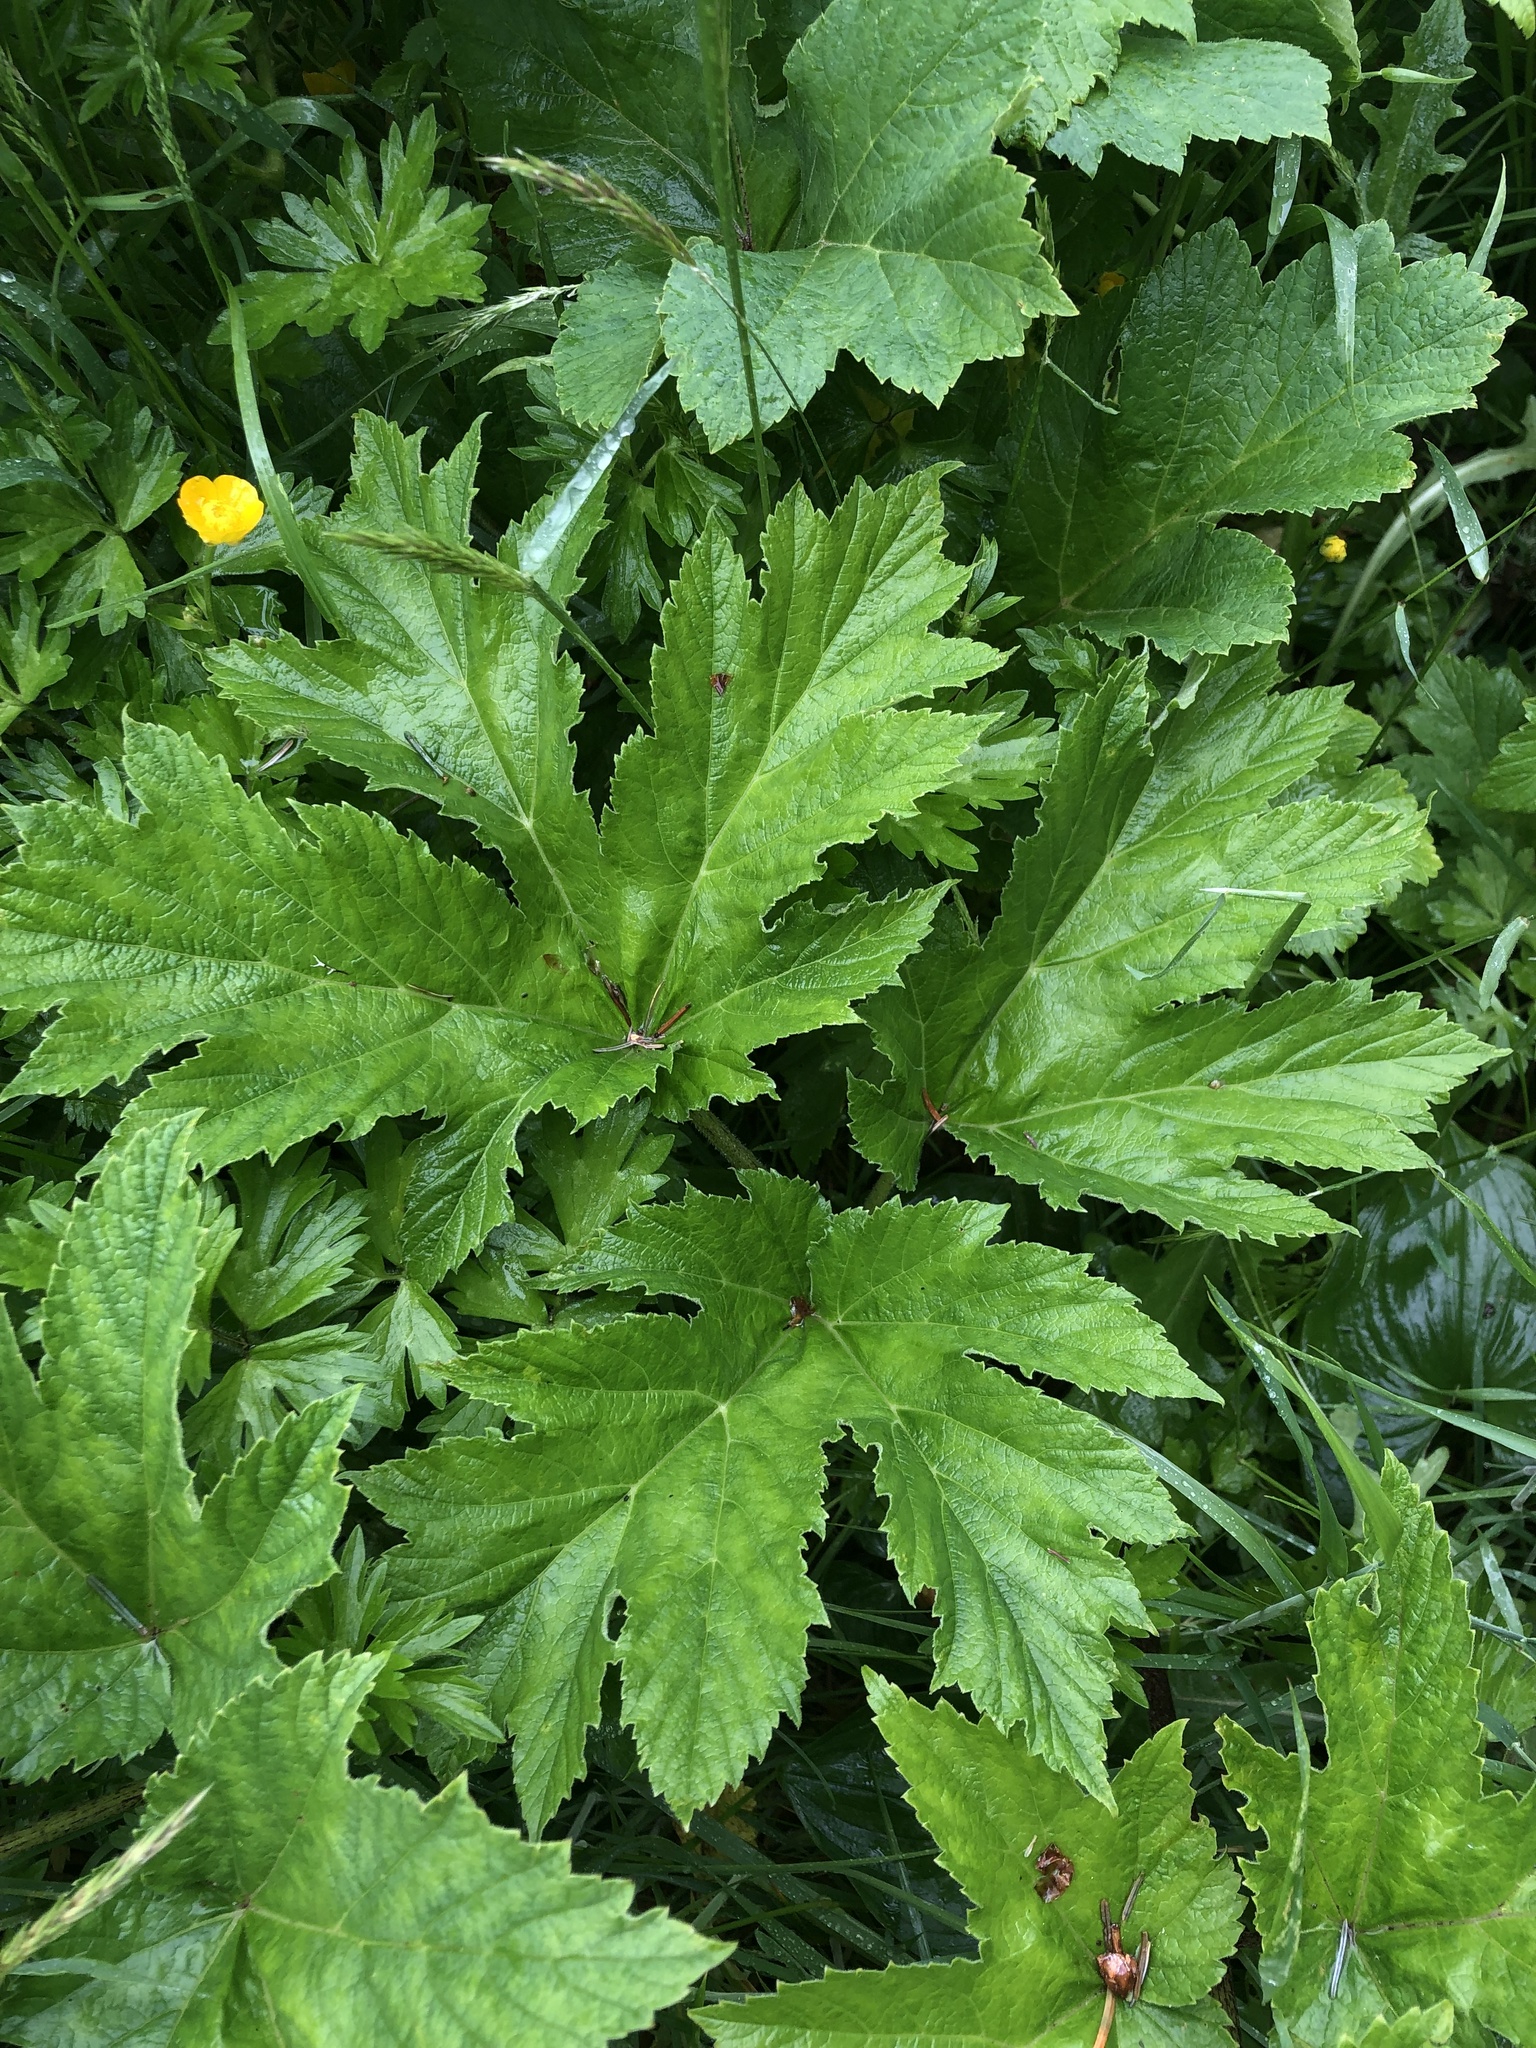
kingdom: Plantae
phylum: Tracheophyta
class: Magnoliopsida
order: Apiales
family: Apiaceae
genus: Heracleum
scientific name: Heracleum maximum
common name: American cow parsnip
